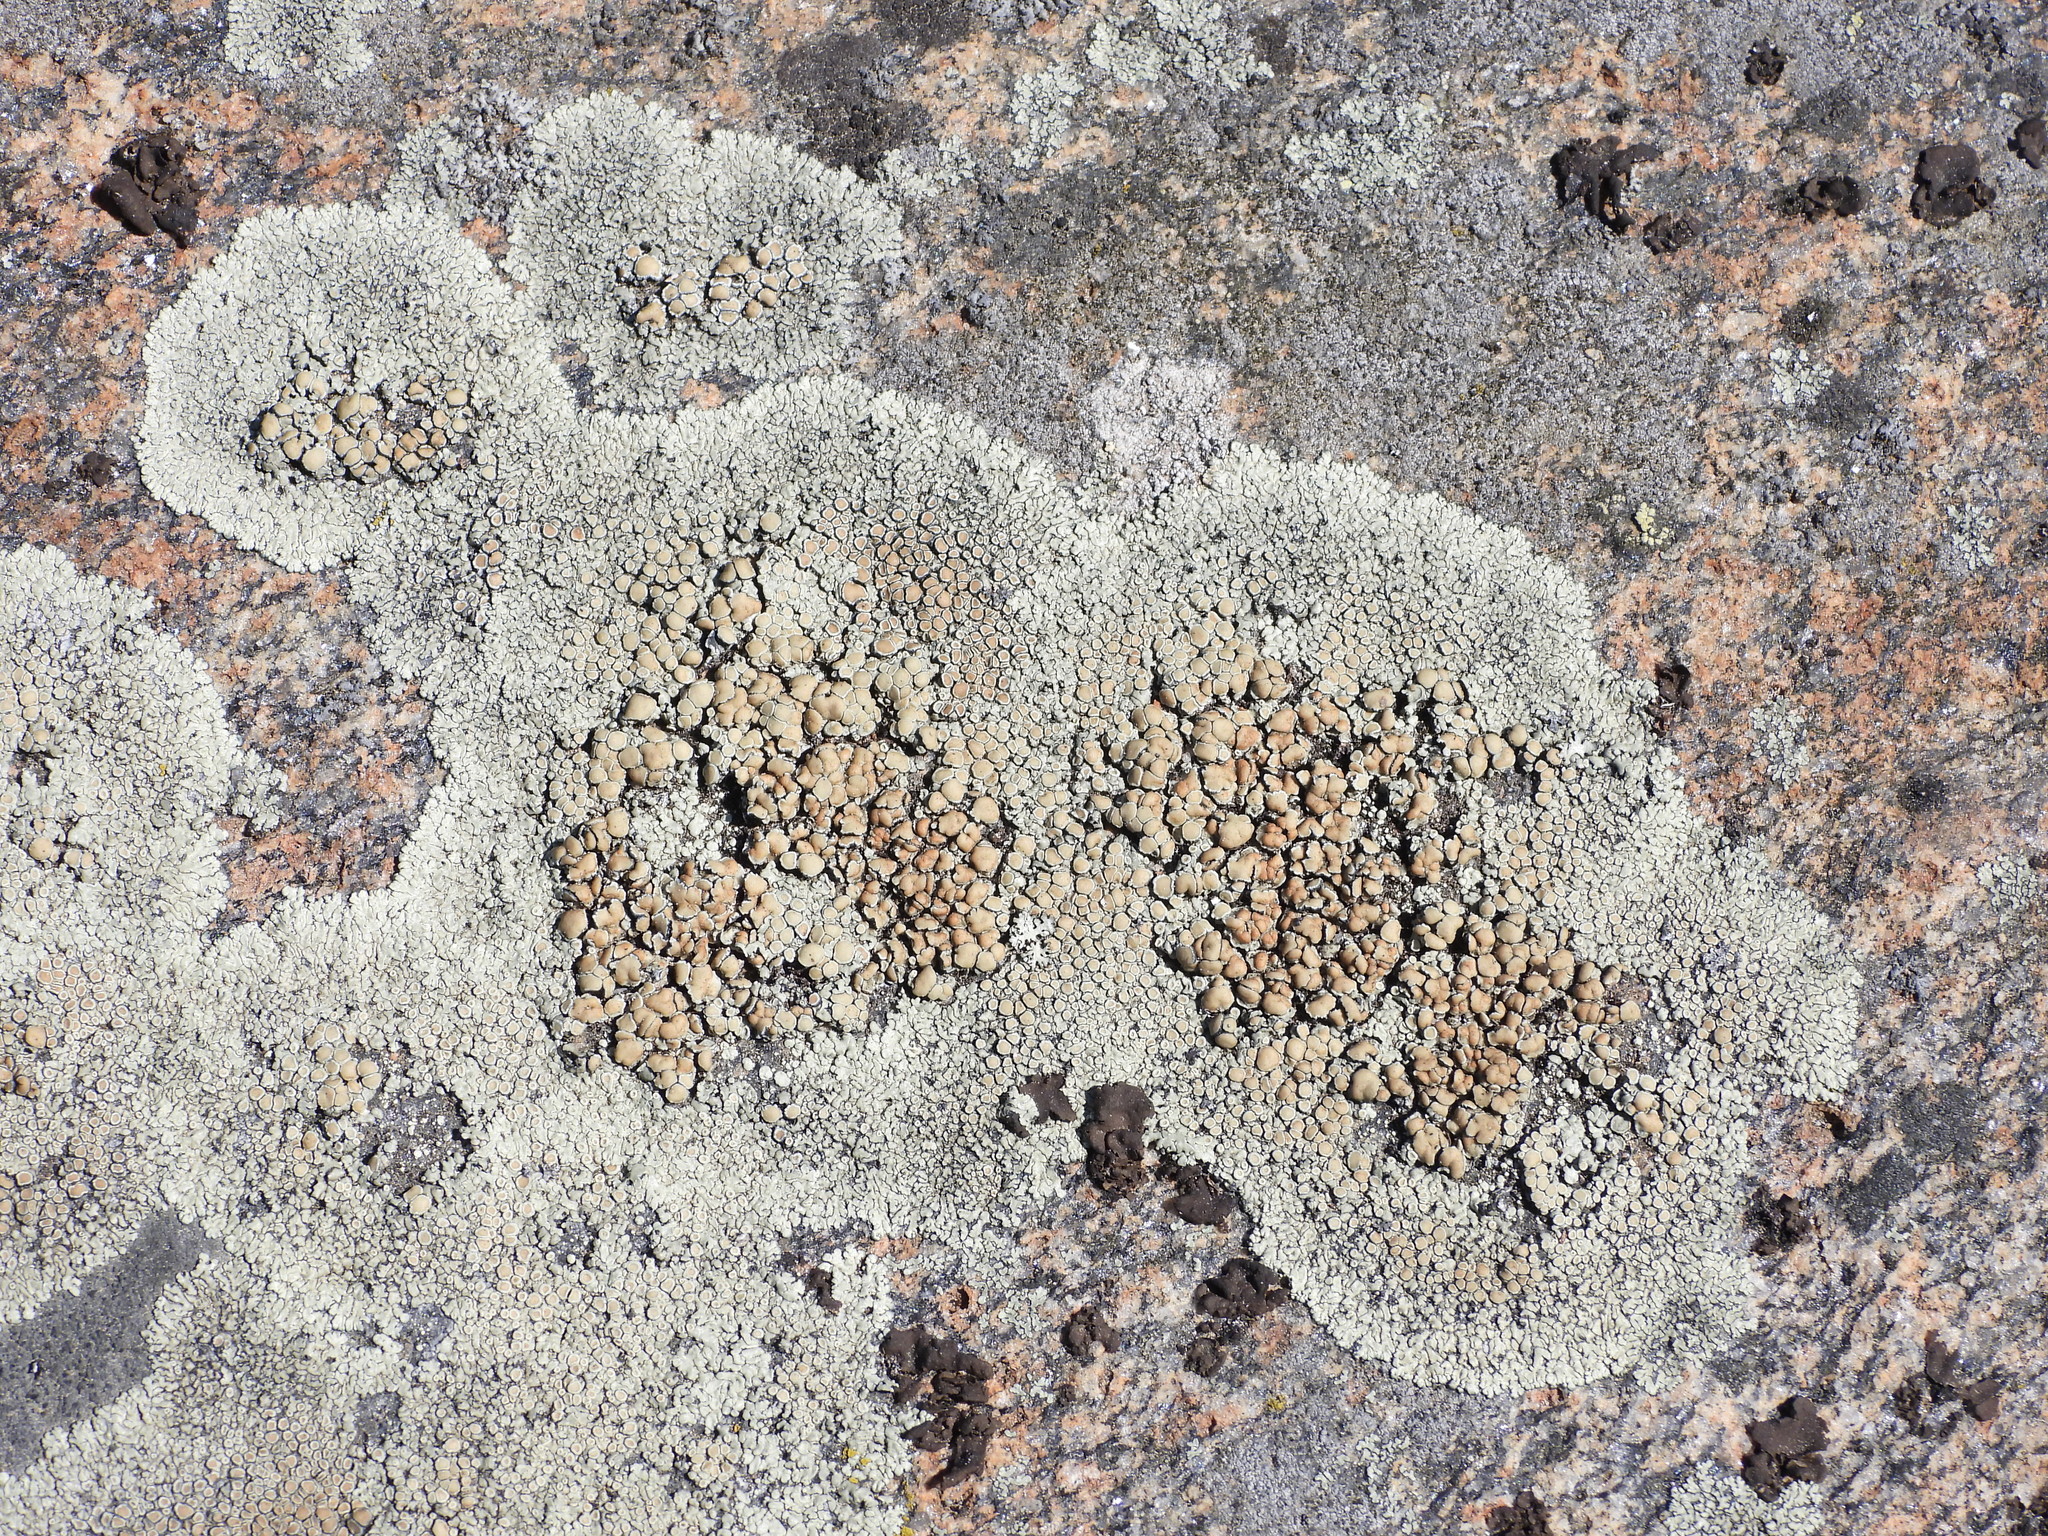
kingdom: Fungi
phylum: Ascomycota
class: Lecanoromycetes
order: Lecanorales
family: Lecanoraceae
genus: Protoparmeliopsis
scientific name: Protoparmeliopsis muralis
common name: Stonewall rim lichen
